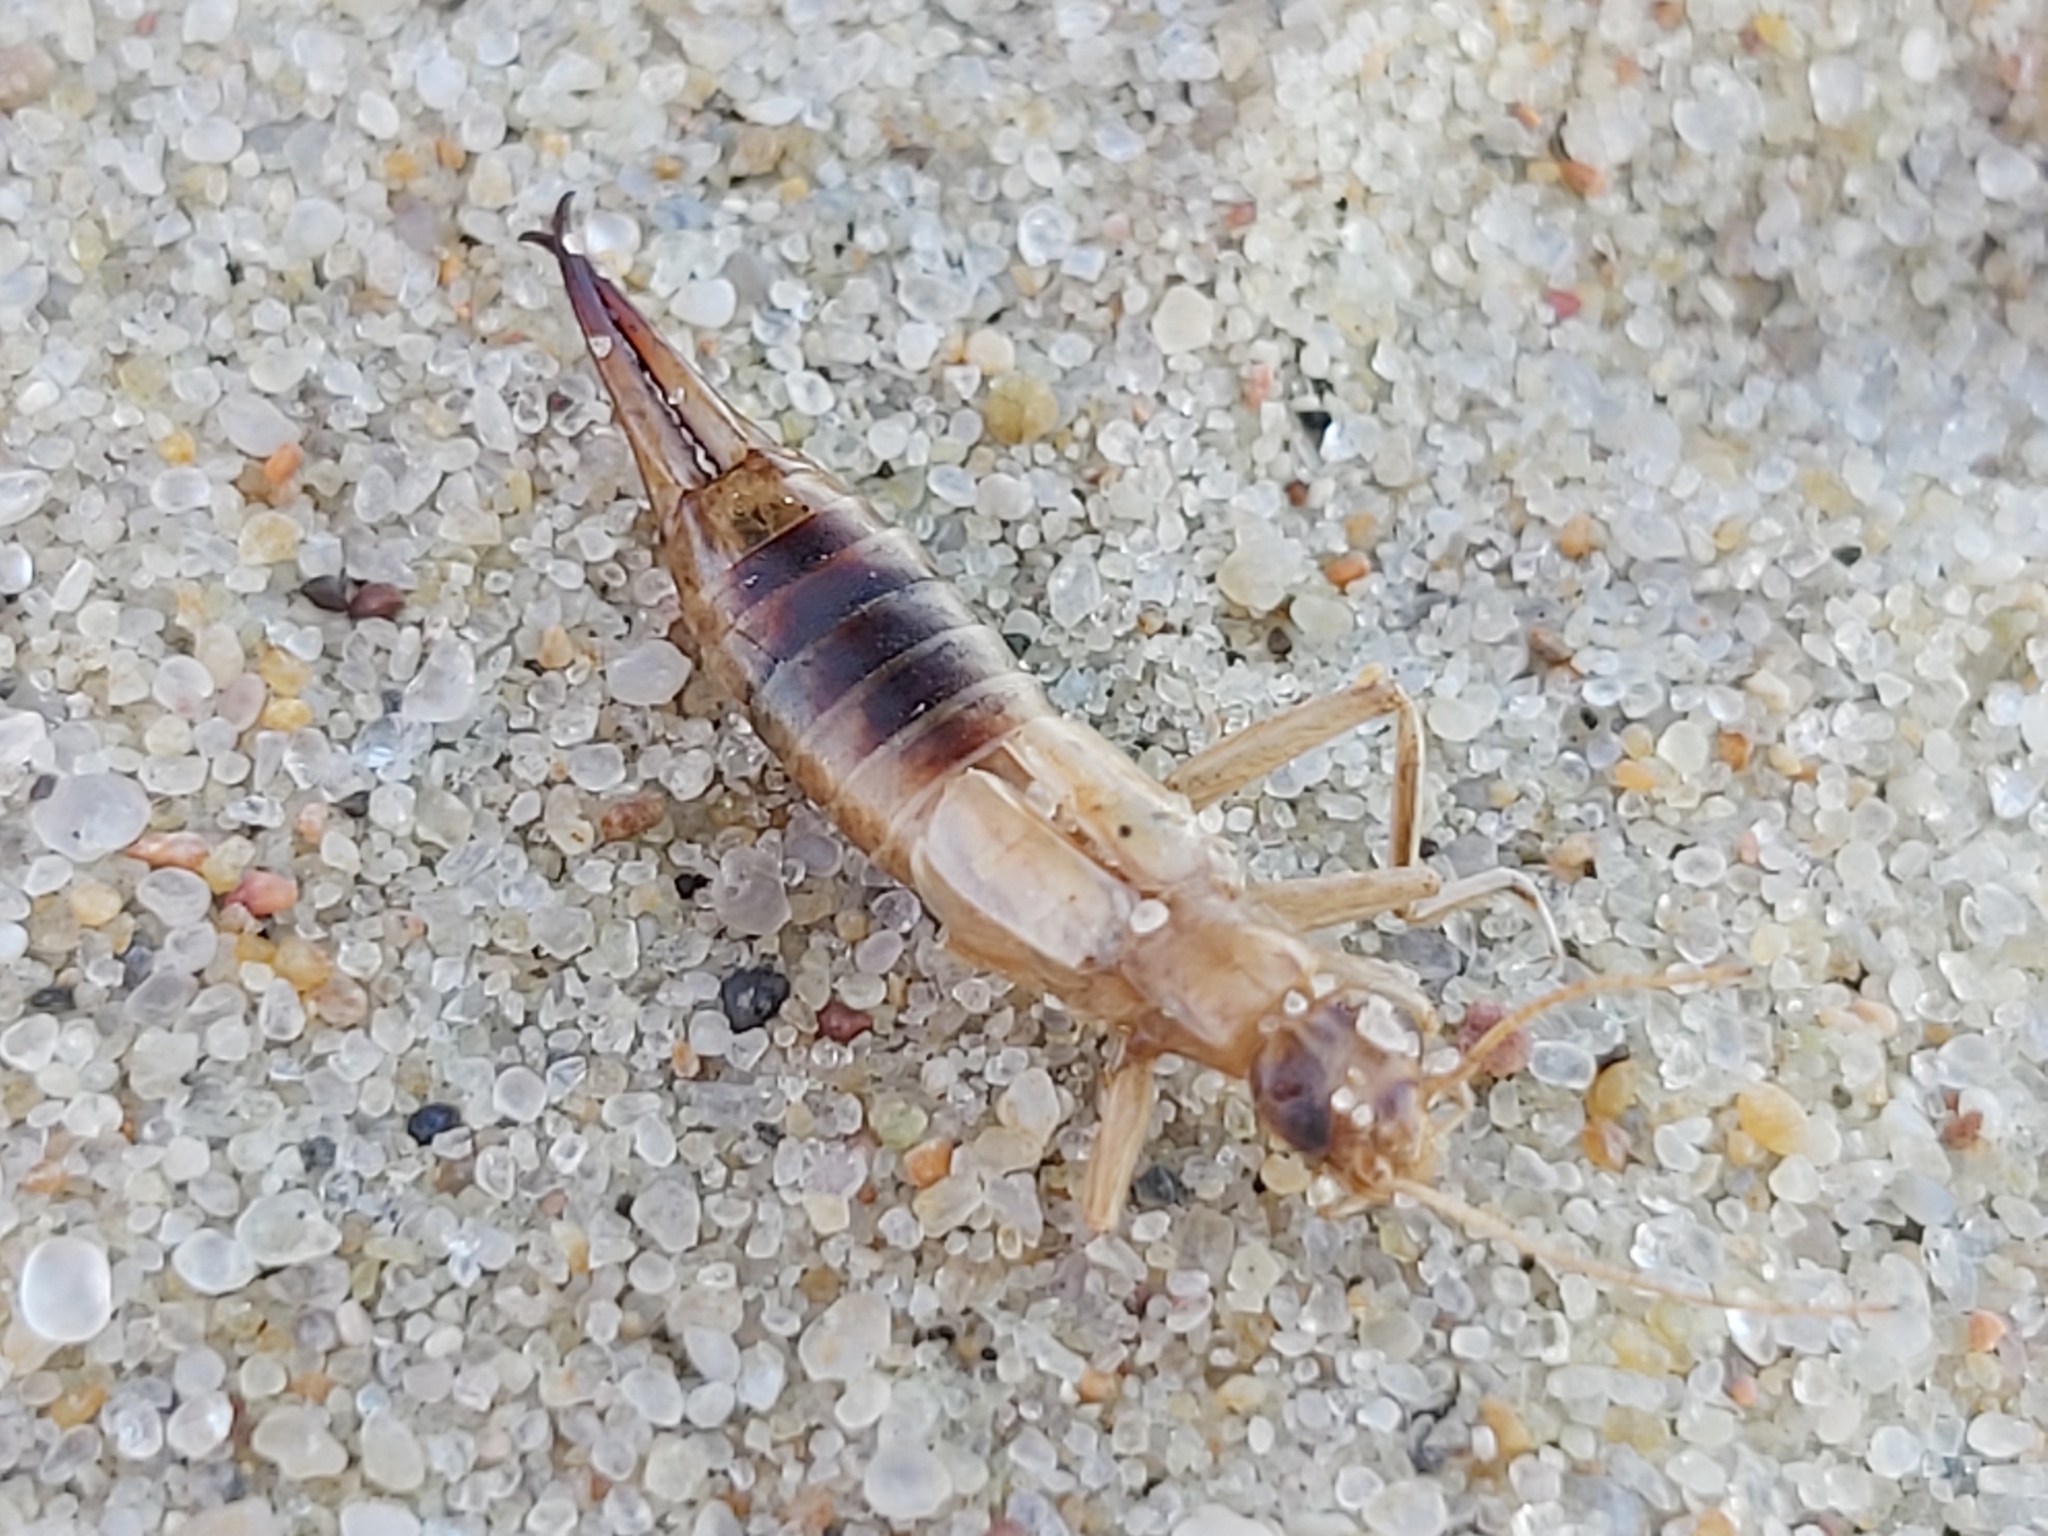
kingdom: Animalia
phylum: Arthropoda
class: Insecta
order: Dermaptera
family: Labiduridae
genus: Labidura
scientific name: Labidura riparia
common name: Striped earwig
